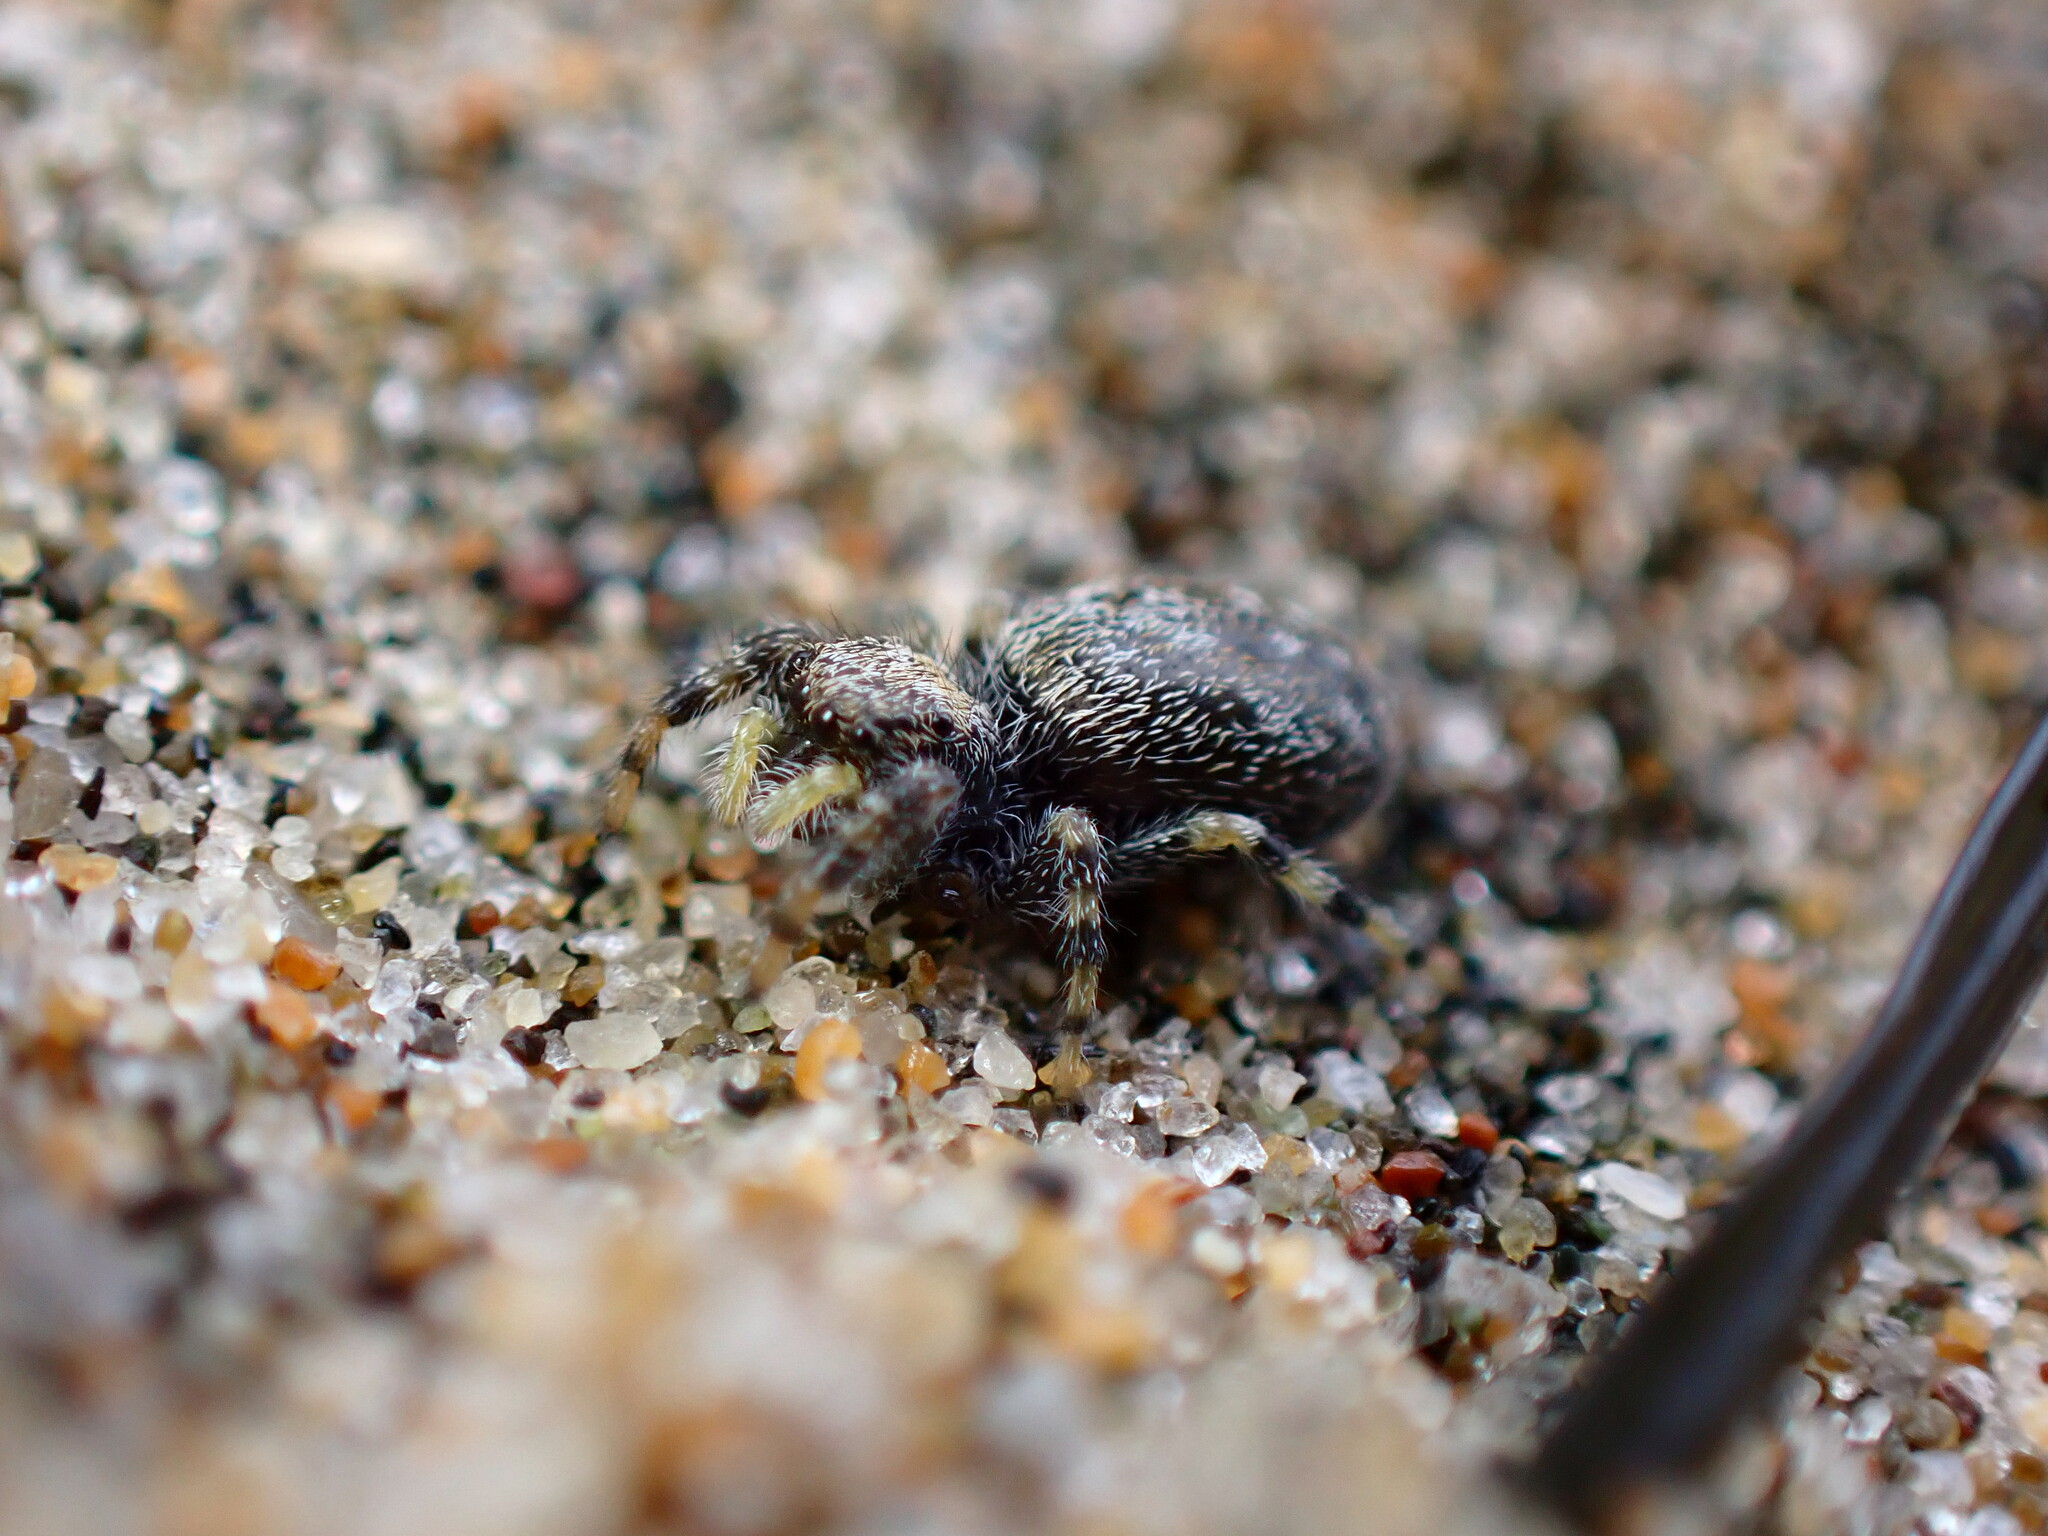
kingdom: Animalia
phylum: Arthropoda
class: Arachnida
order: Araneae
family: Salticidae
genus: Terralonus
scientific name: Terralonus californicus
